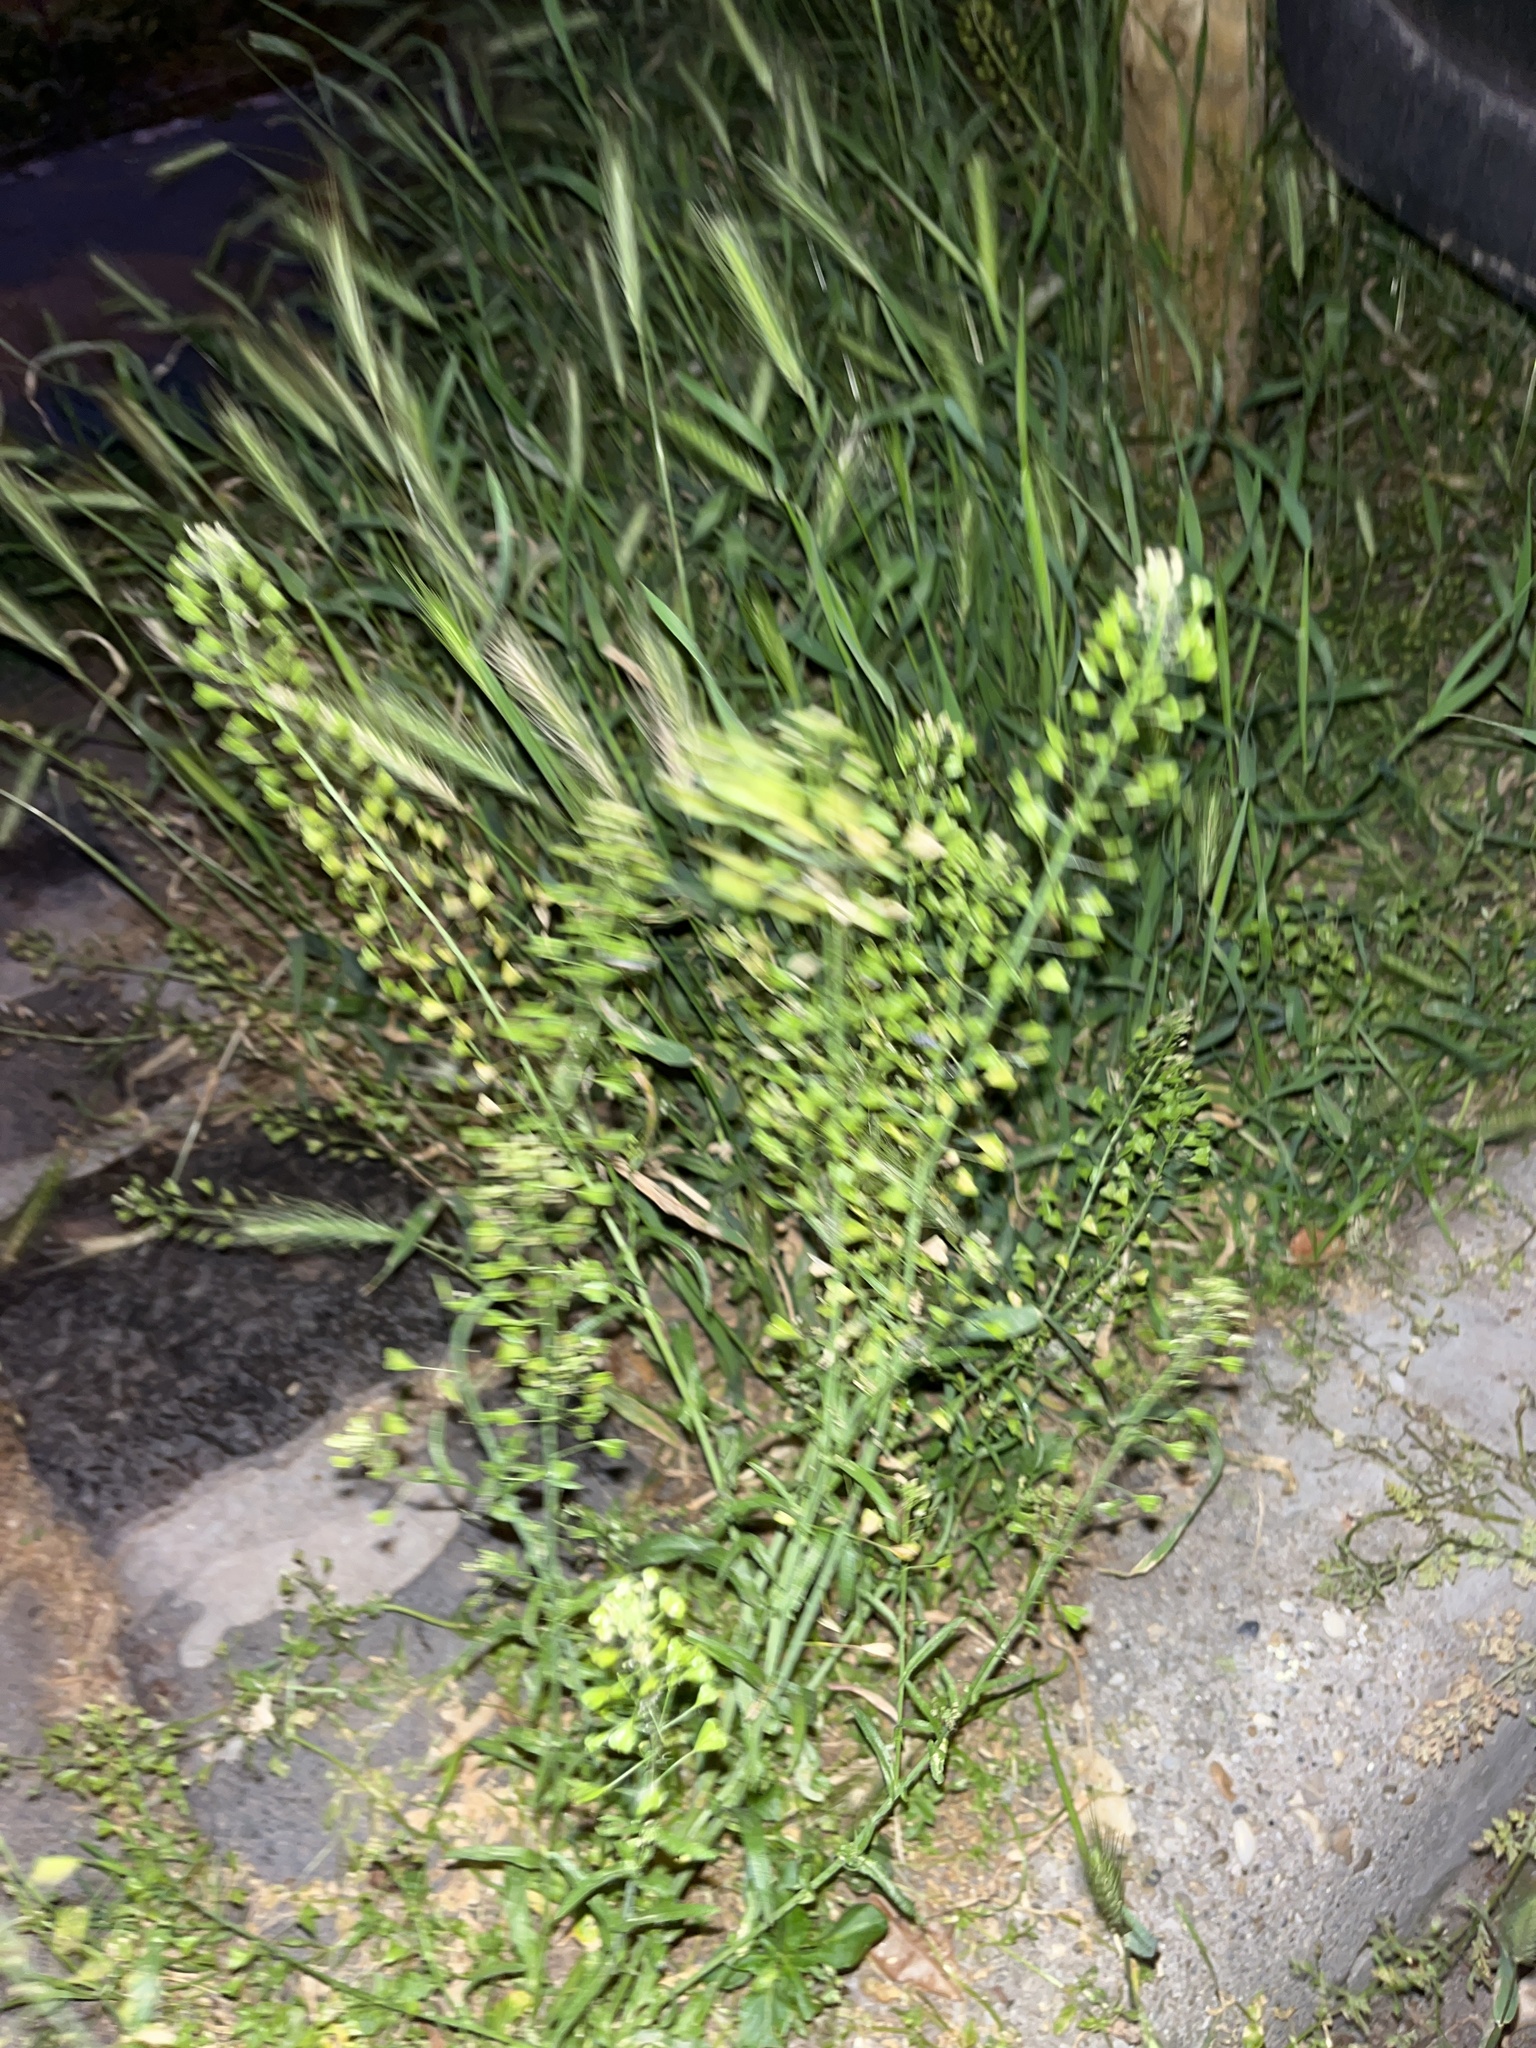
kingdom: Plantae
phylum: Tracheophyta
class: Magnoliopsida
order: Brassicales
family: Brassicaceae
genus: Capsella
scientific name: Capsella bursa-pastoris
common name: Shepherd's purse
